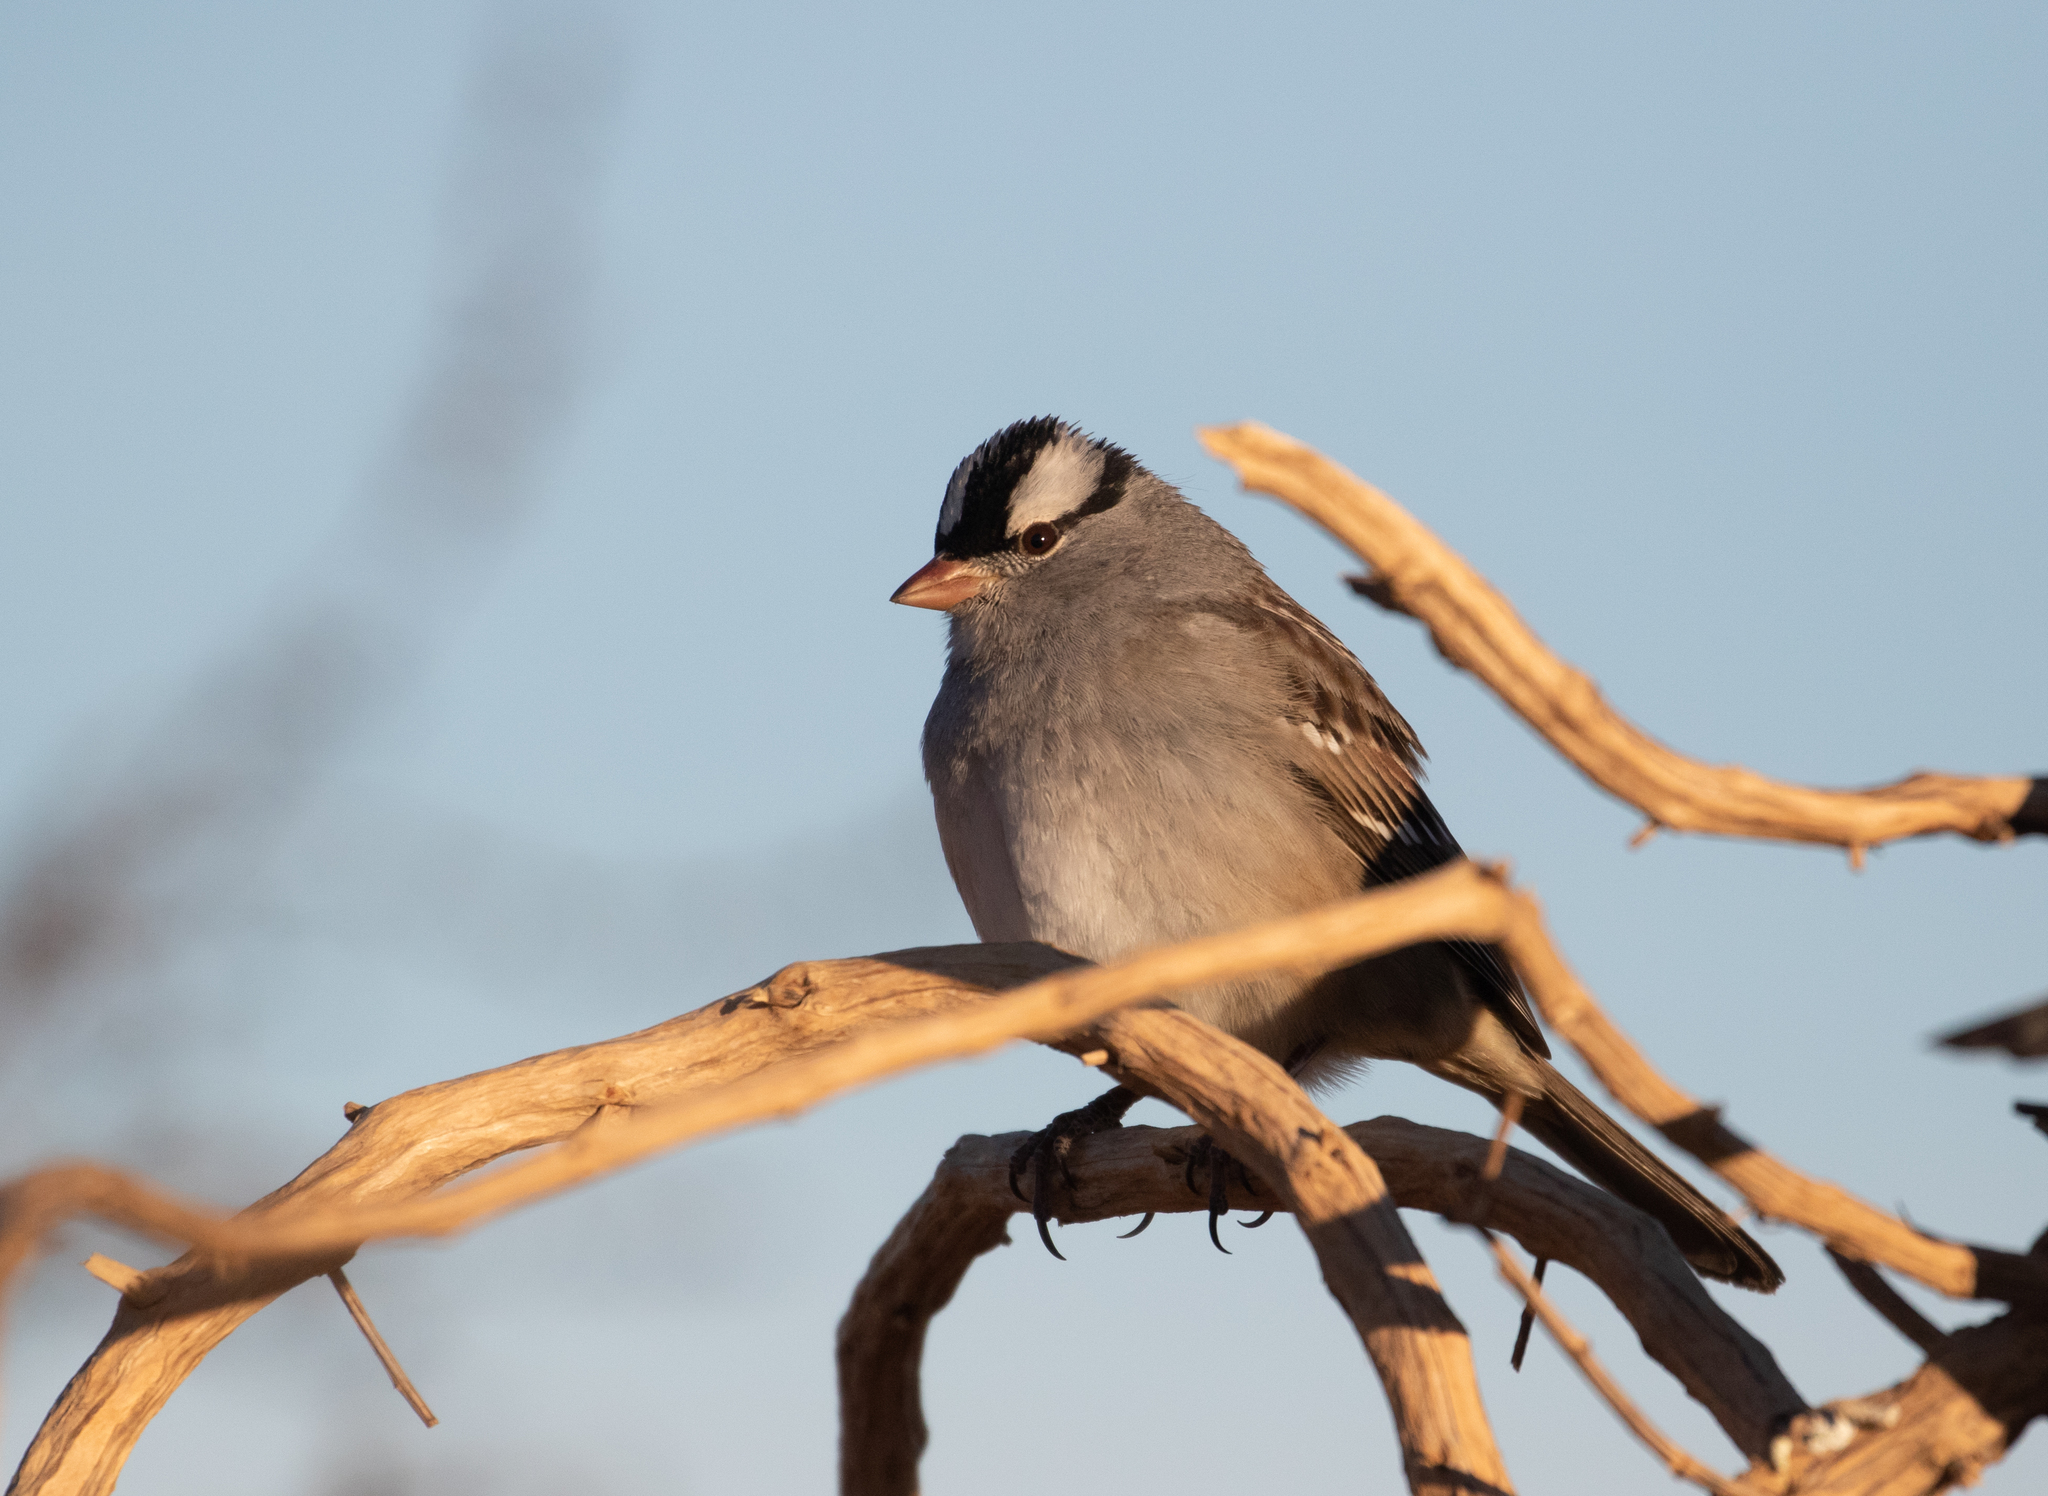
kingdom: Animalia
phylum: Chordata
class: Aves
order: Passeriformes
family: Passerellidae
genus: Zonotrichia
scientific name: Zonotrichia leucophrys
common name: White-crowned sparrow
